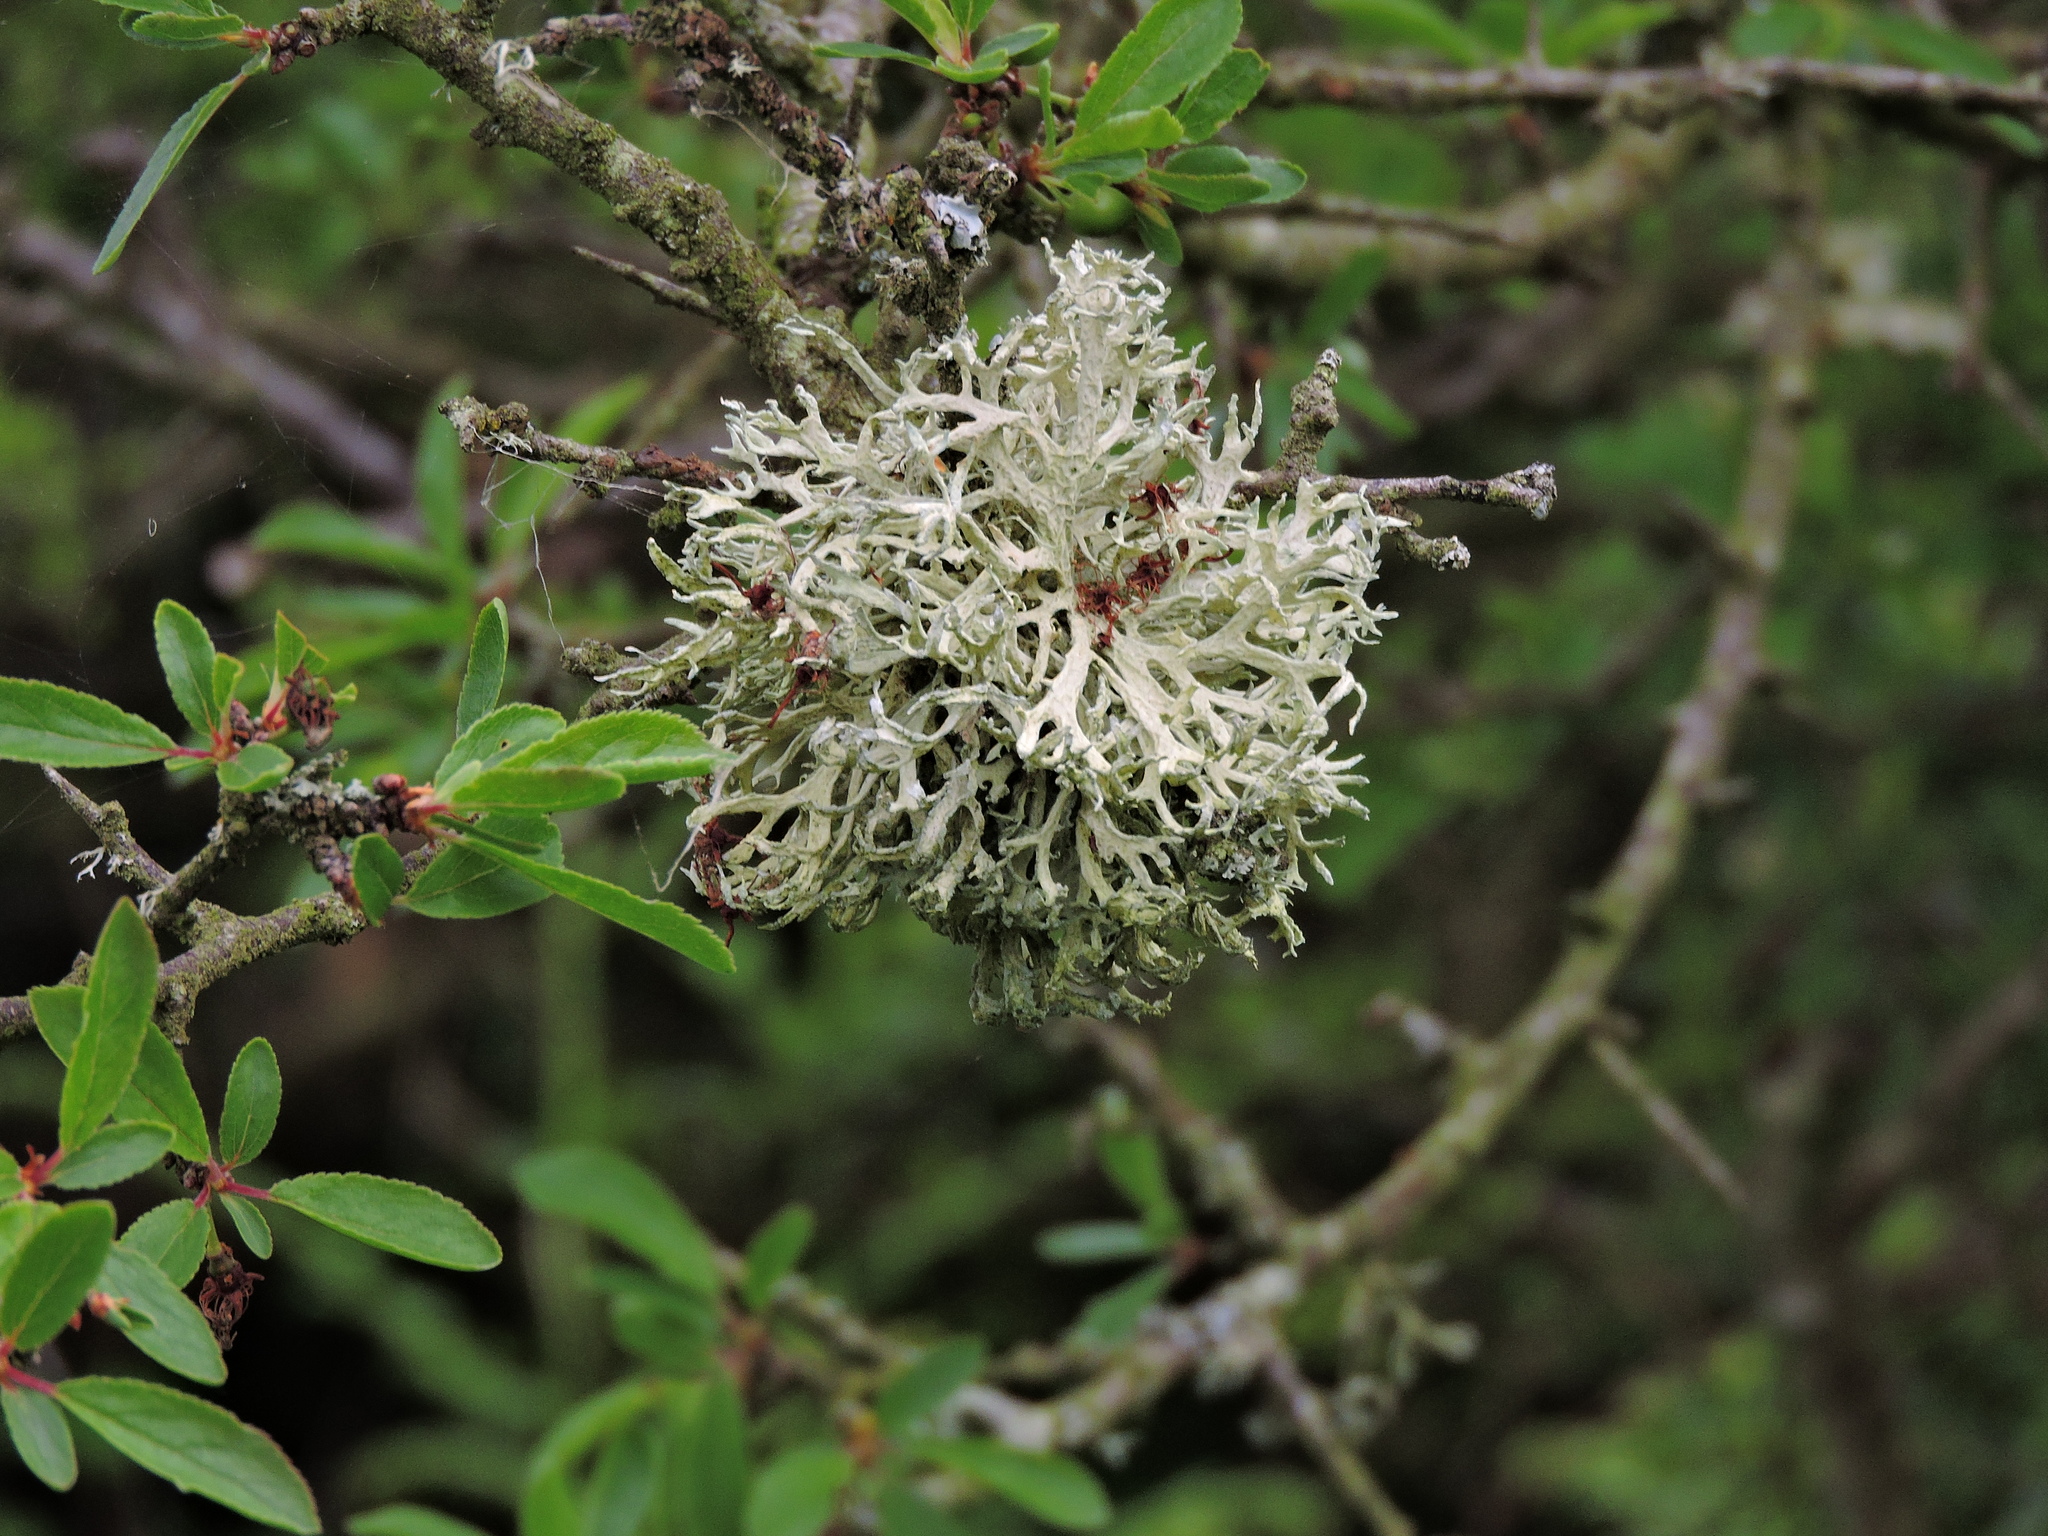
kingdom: Fungi
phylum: Ascomycota
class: Lecanoromycetes
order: Lecanorales
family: Parmeliaceae
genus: Evernia
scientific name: Evernia prunastri
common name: Oak moss
